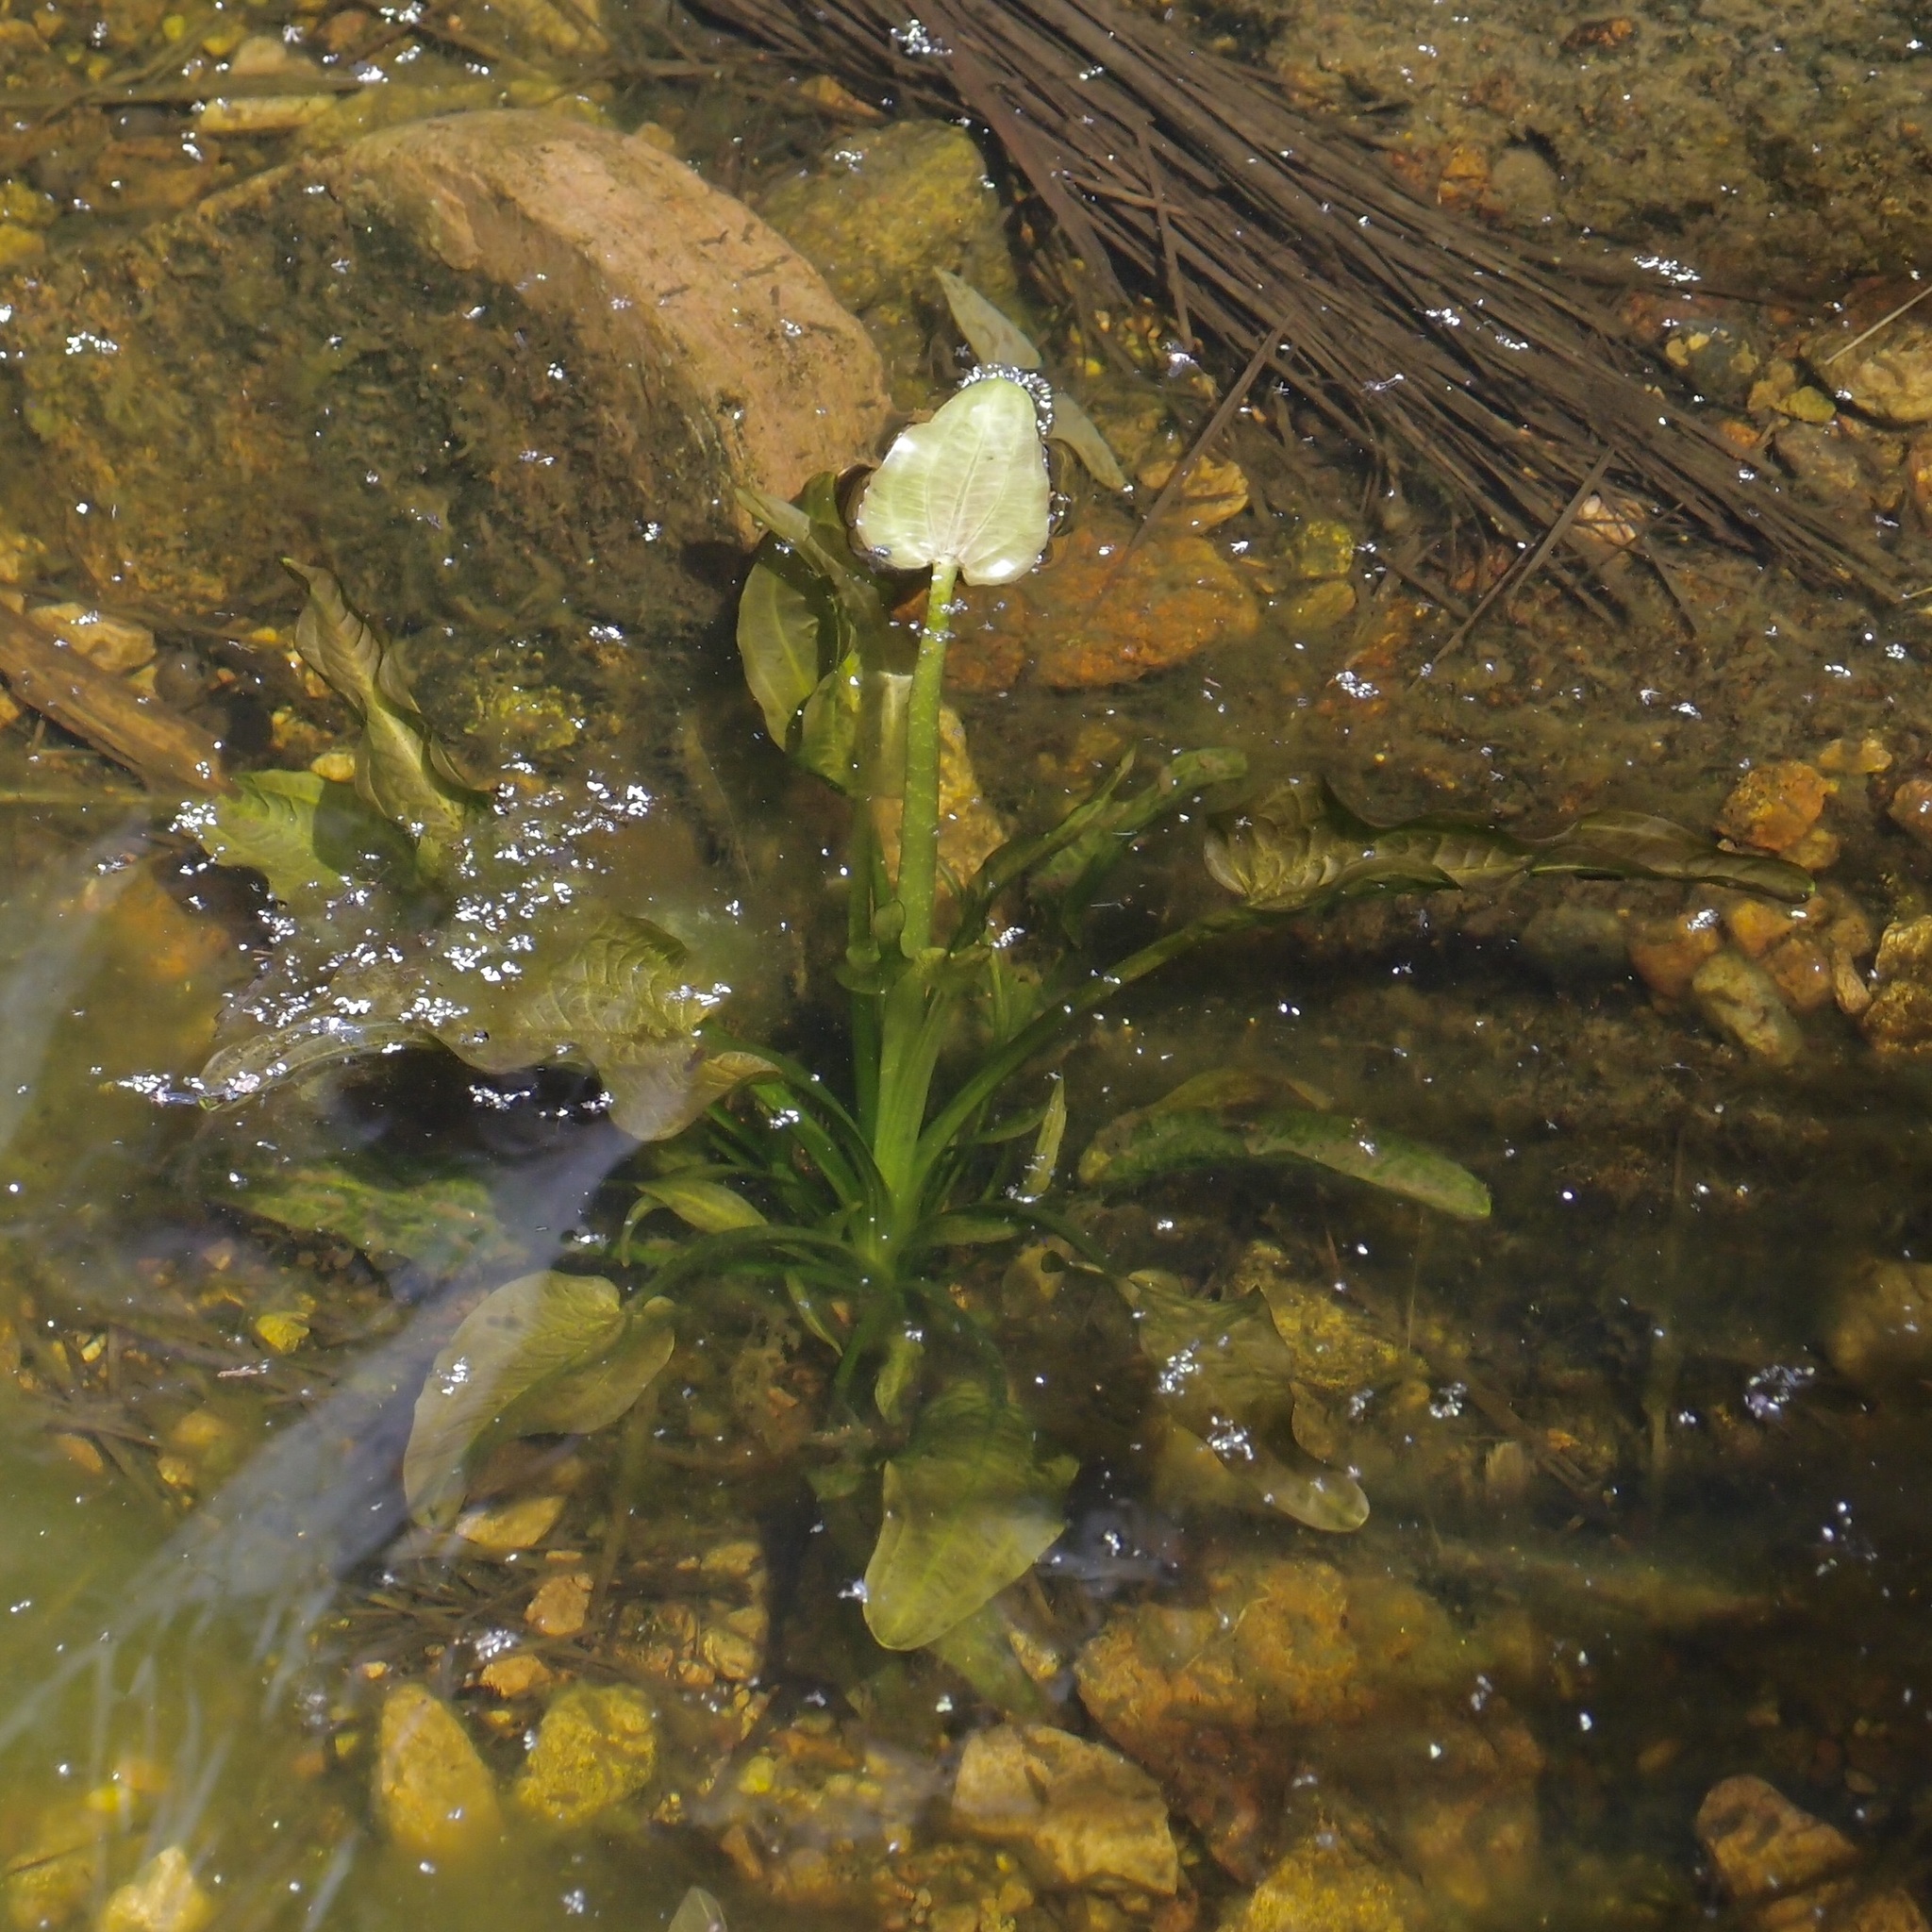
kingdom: Plantae
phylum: Tracheophyta
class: Liliopsida
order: Alismatales
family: Alismataceae
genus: Echinodorus
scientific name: Echinodorus berteroi
